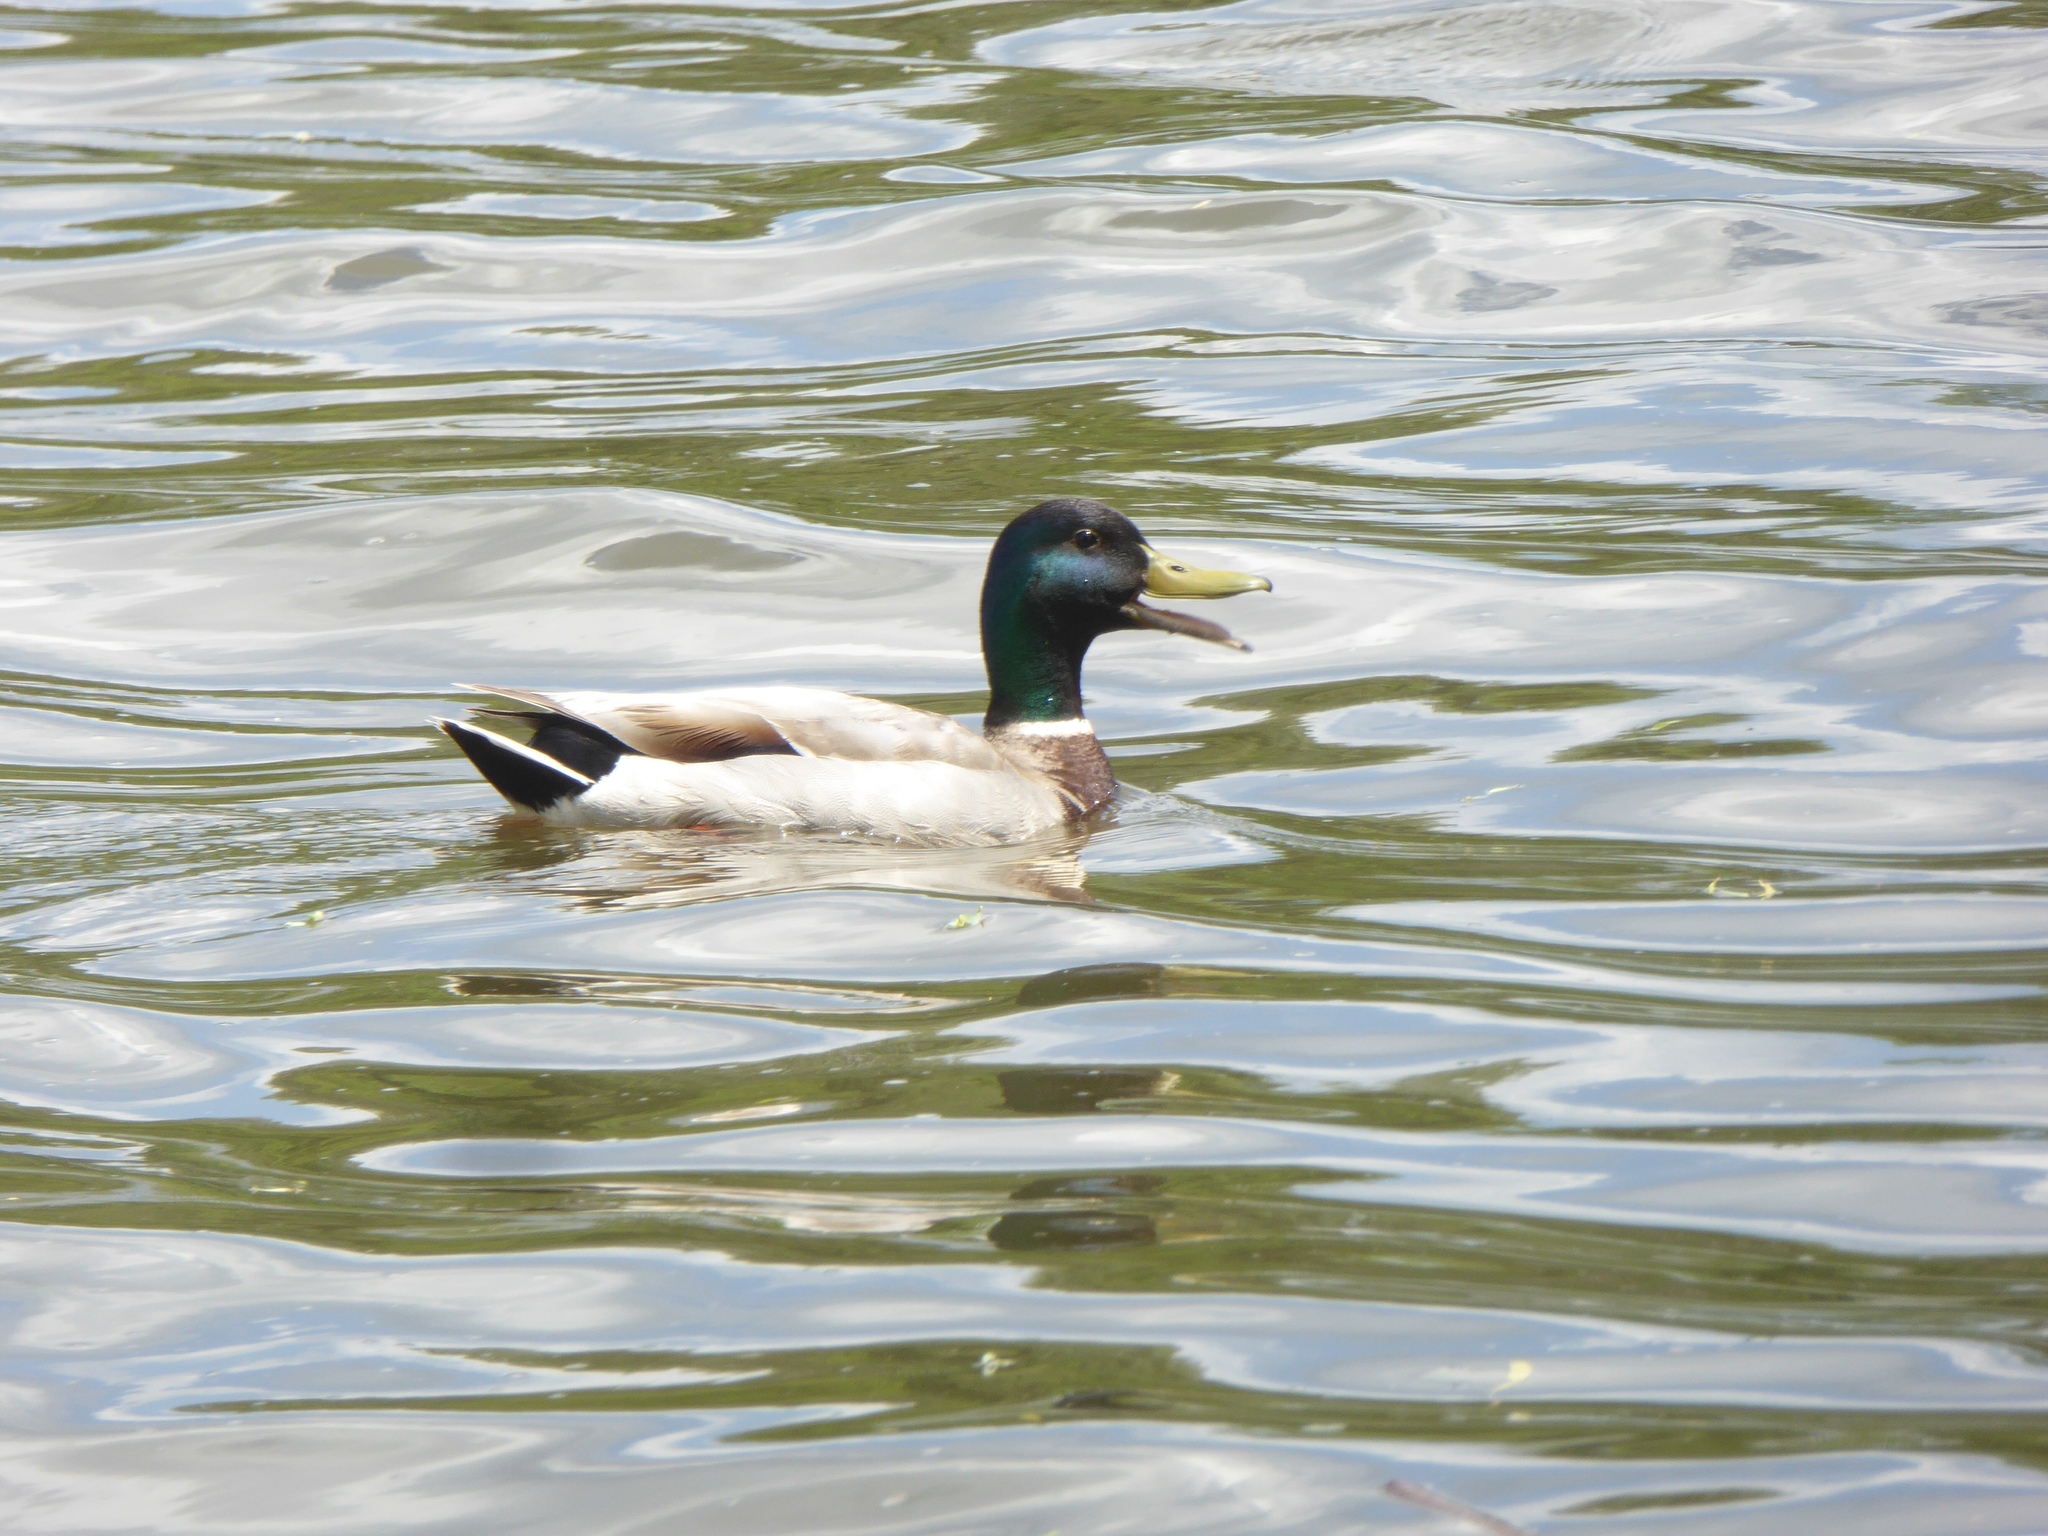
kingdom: Animalia
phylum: Chordata
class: Aves
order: Anseriformes
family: Anatidae
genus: Anas
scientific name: Anas platyrhynchos
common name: Mallard
